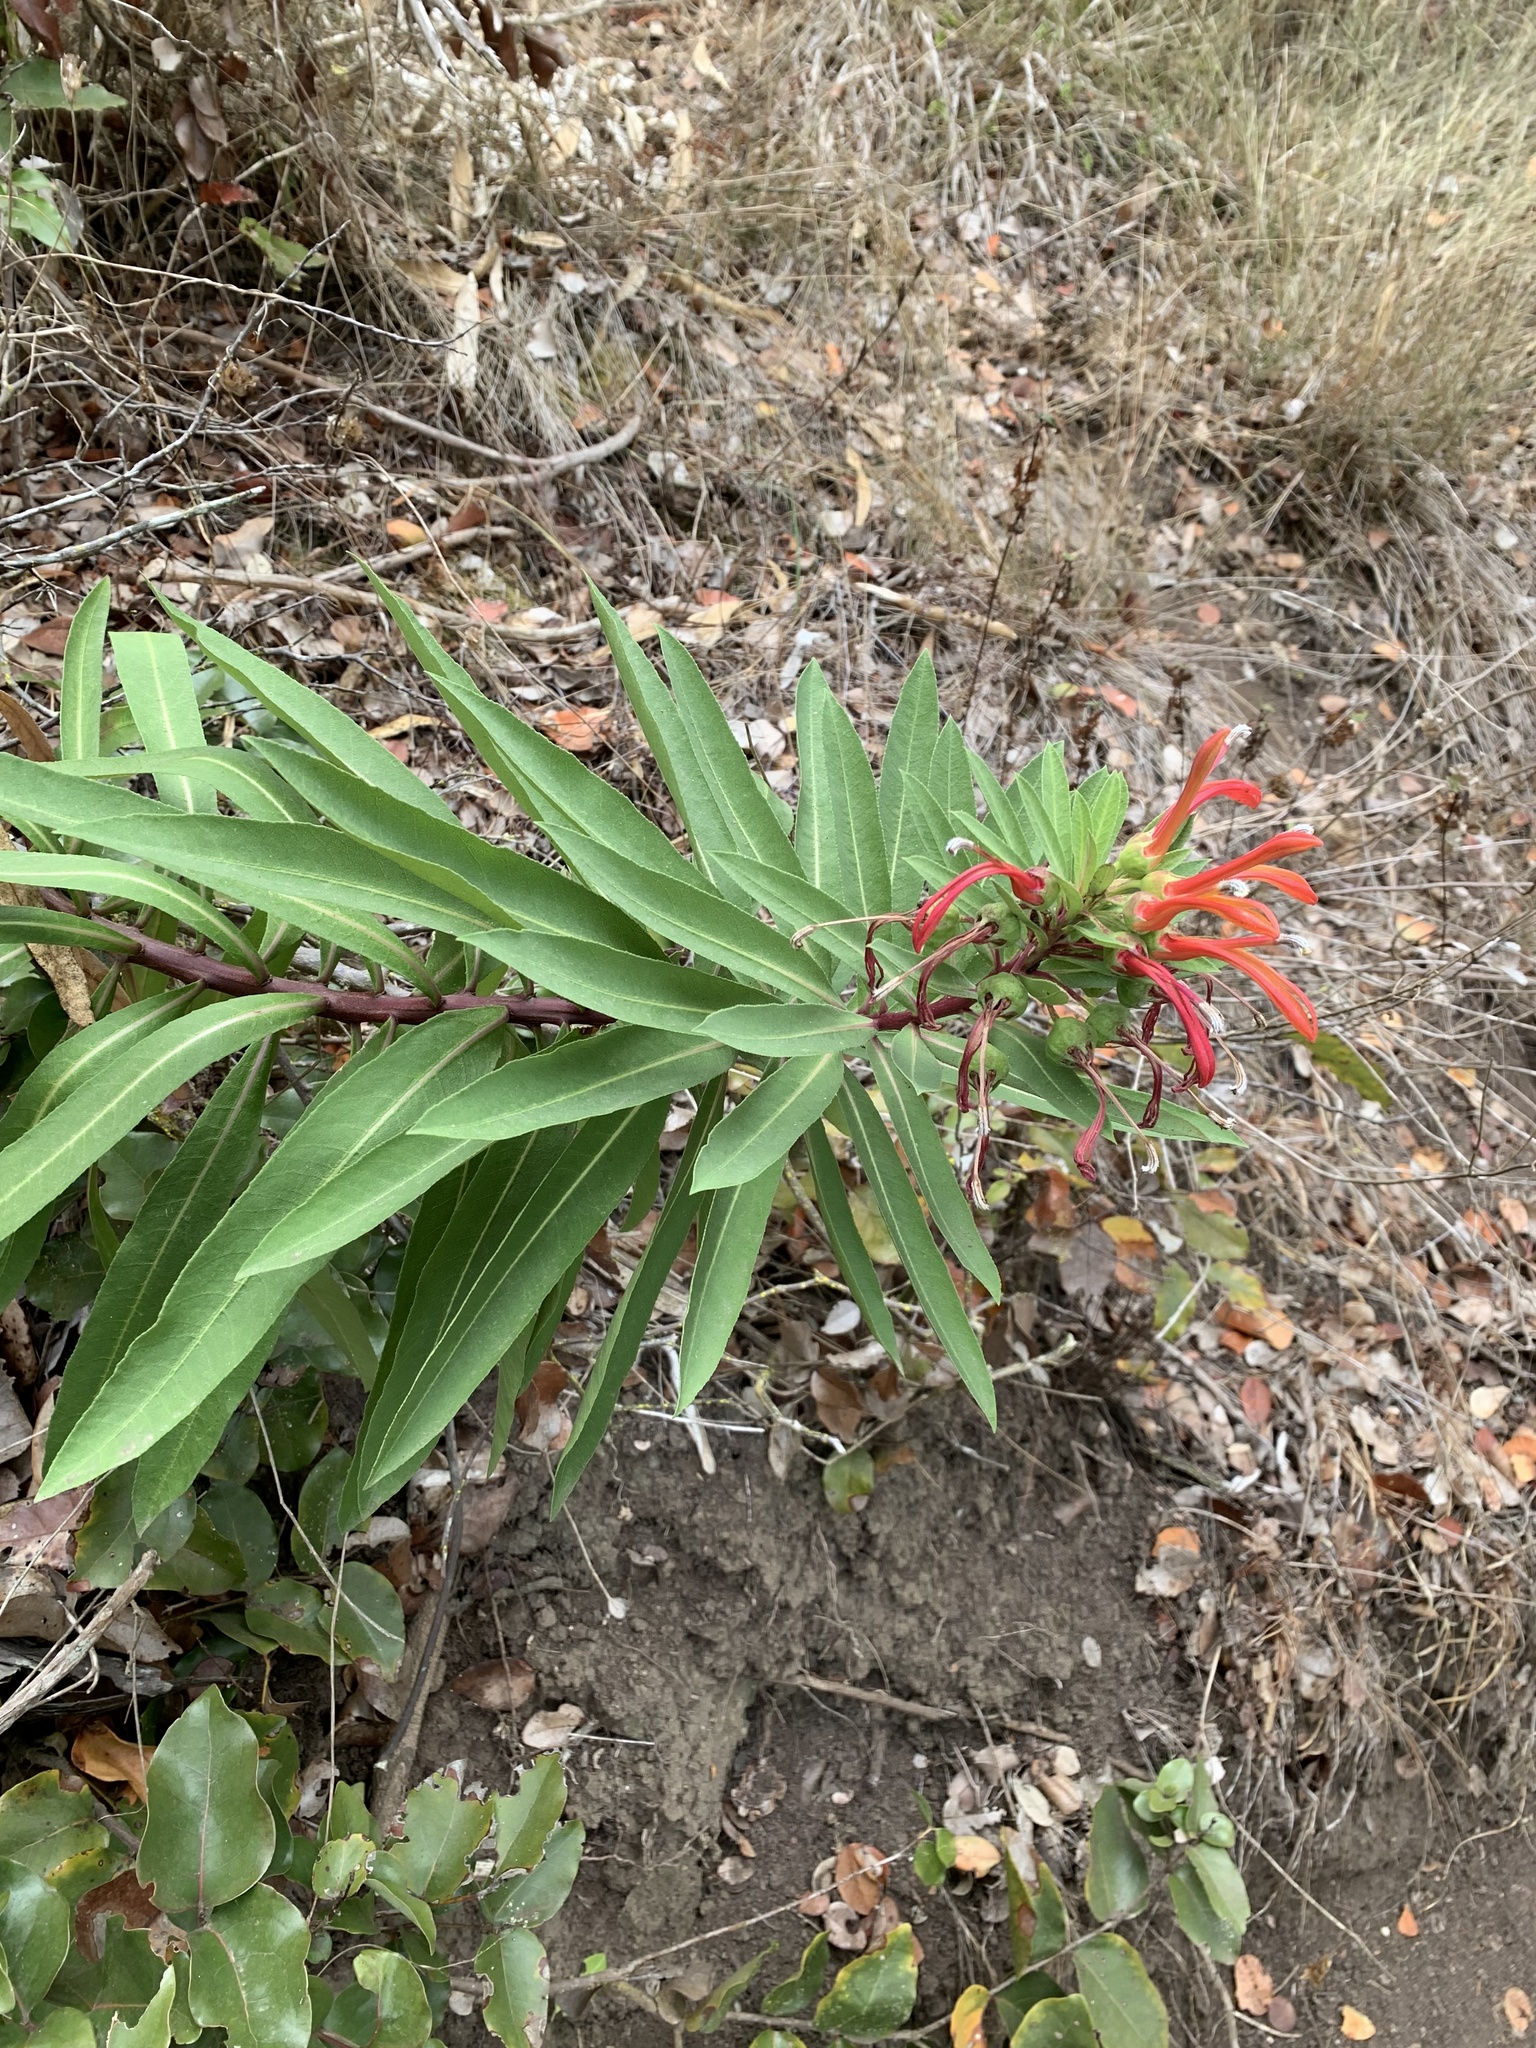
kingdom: Plantae
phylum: Tracheophyta
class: Magnoliopsida
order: Asterales
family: Campanulaceae
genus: Lobelia
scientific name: Lobelia excelsa
